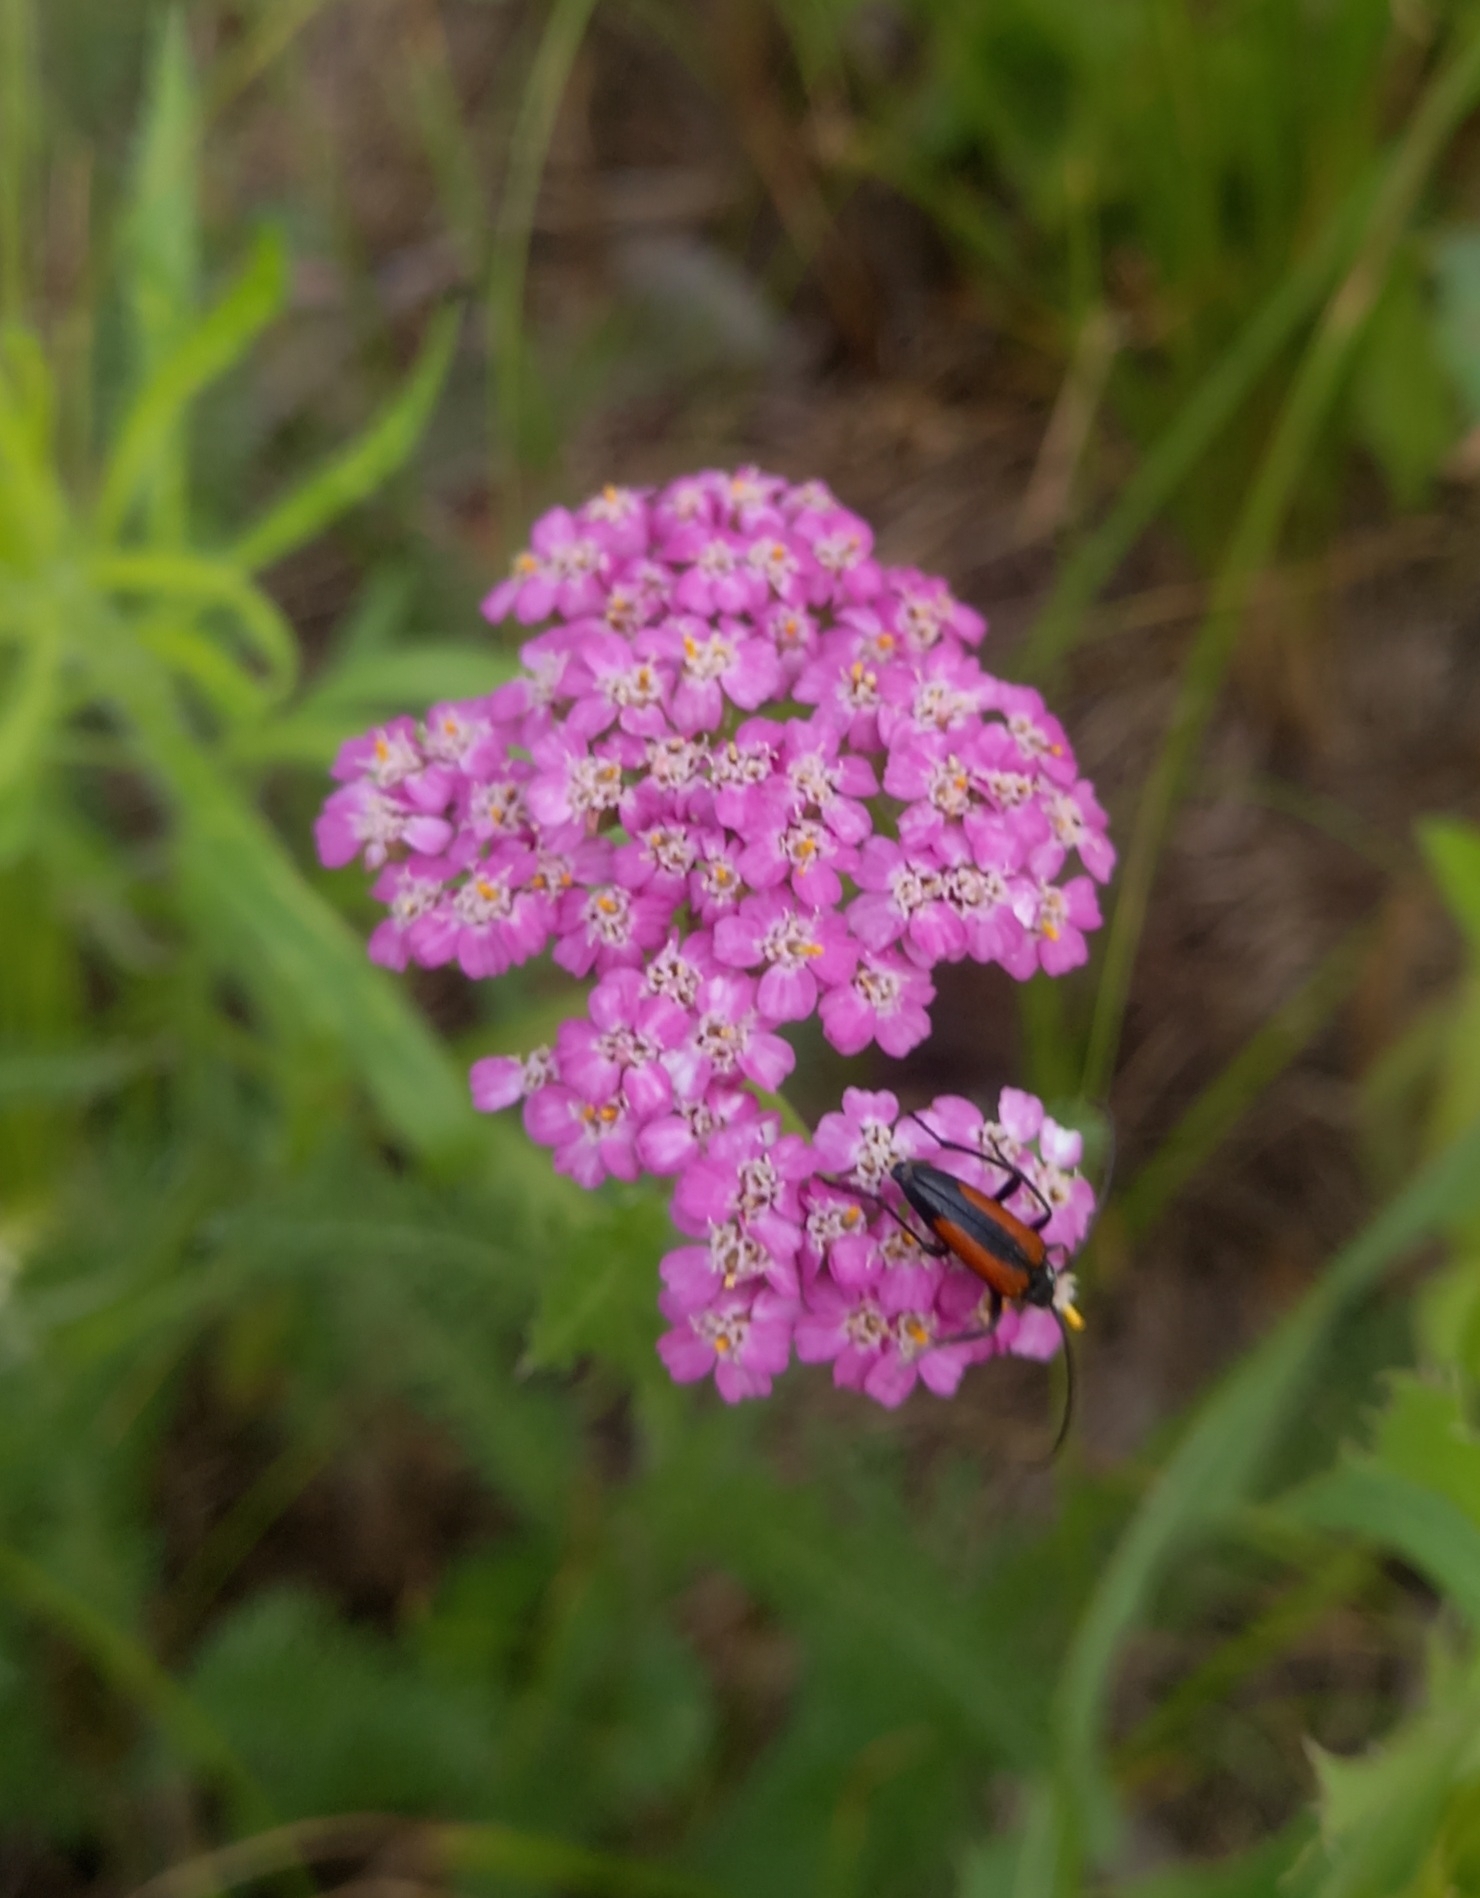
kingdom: Plantae
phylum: Tracheophyta
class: Magnoliopsida
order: Asterales
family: Asteraceae
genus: Achillea
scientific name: Achillea millefolium
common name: Yarrow
